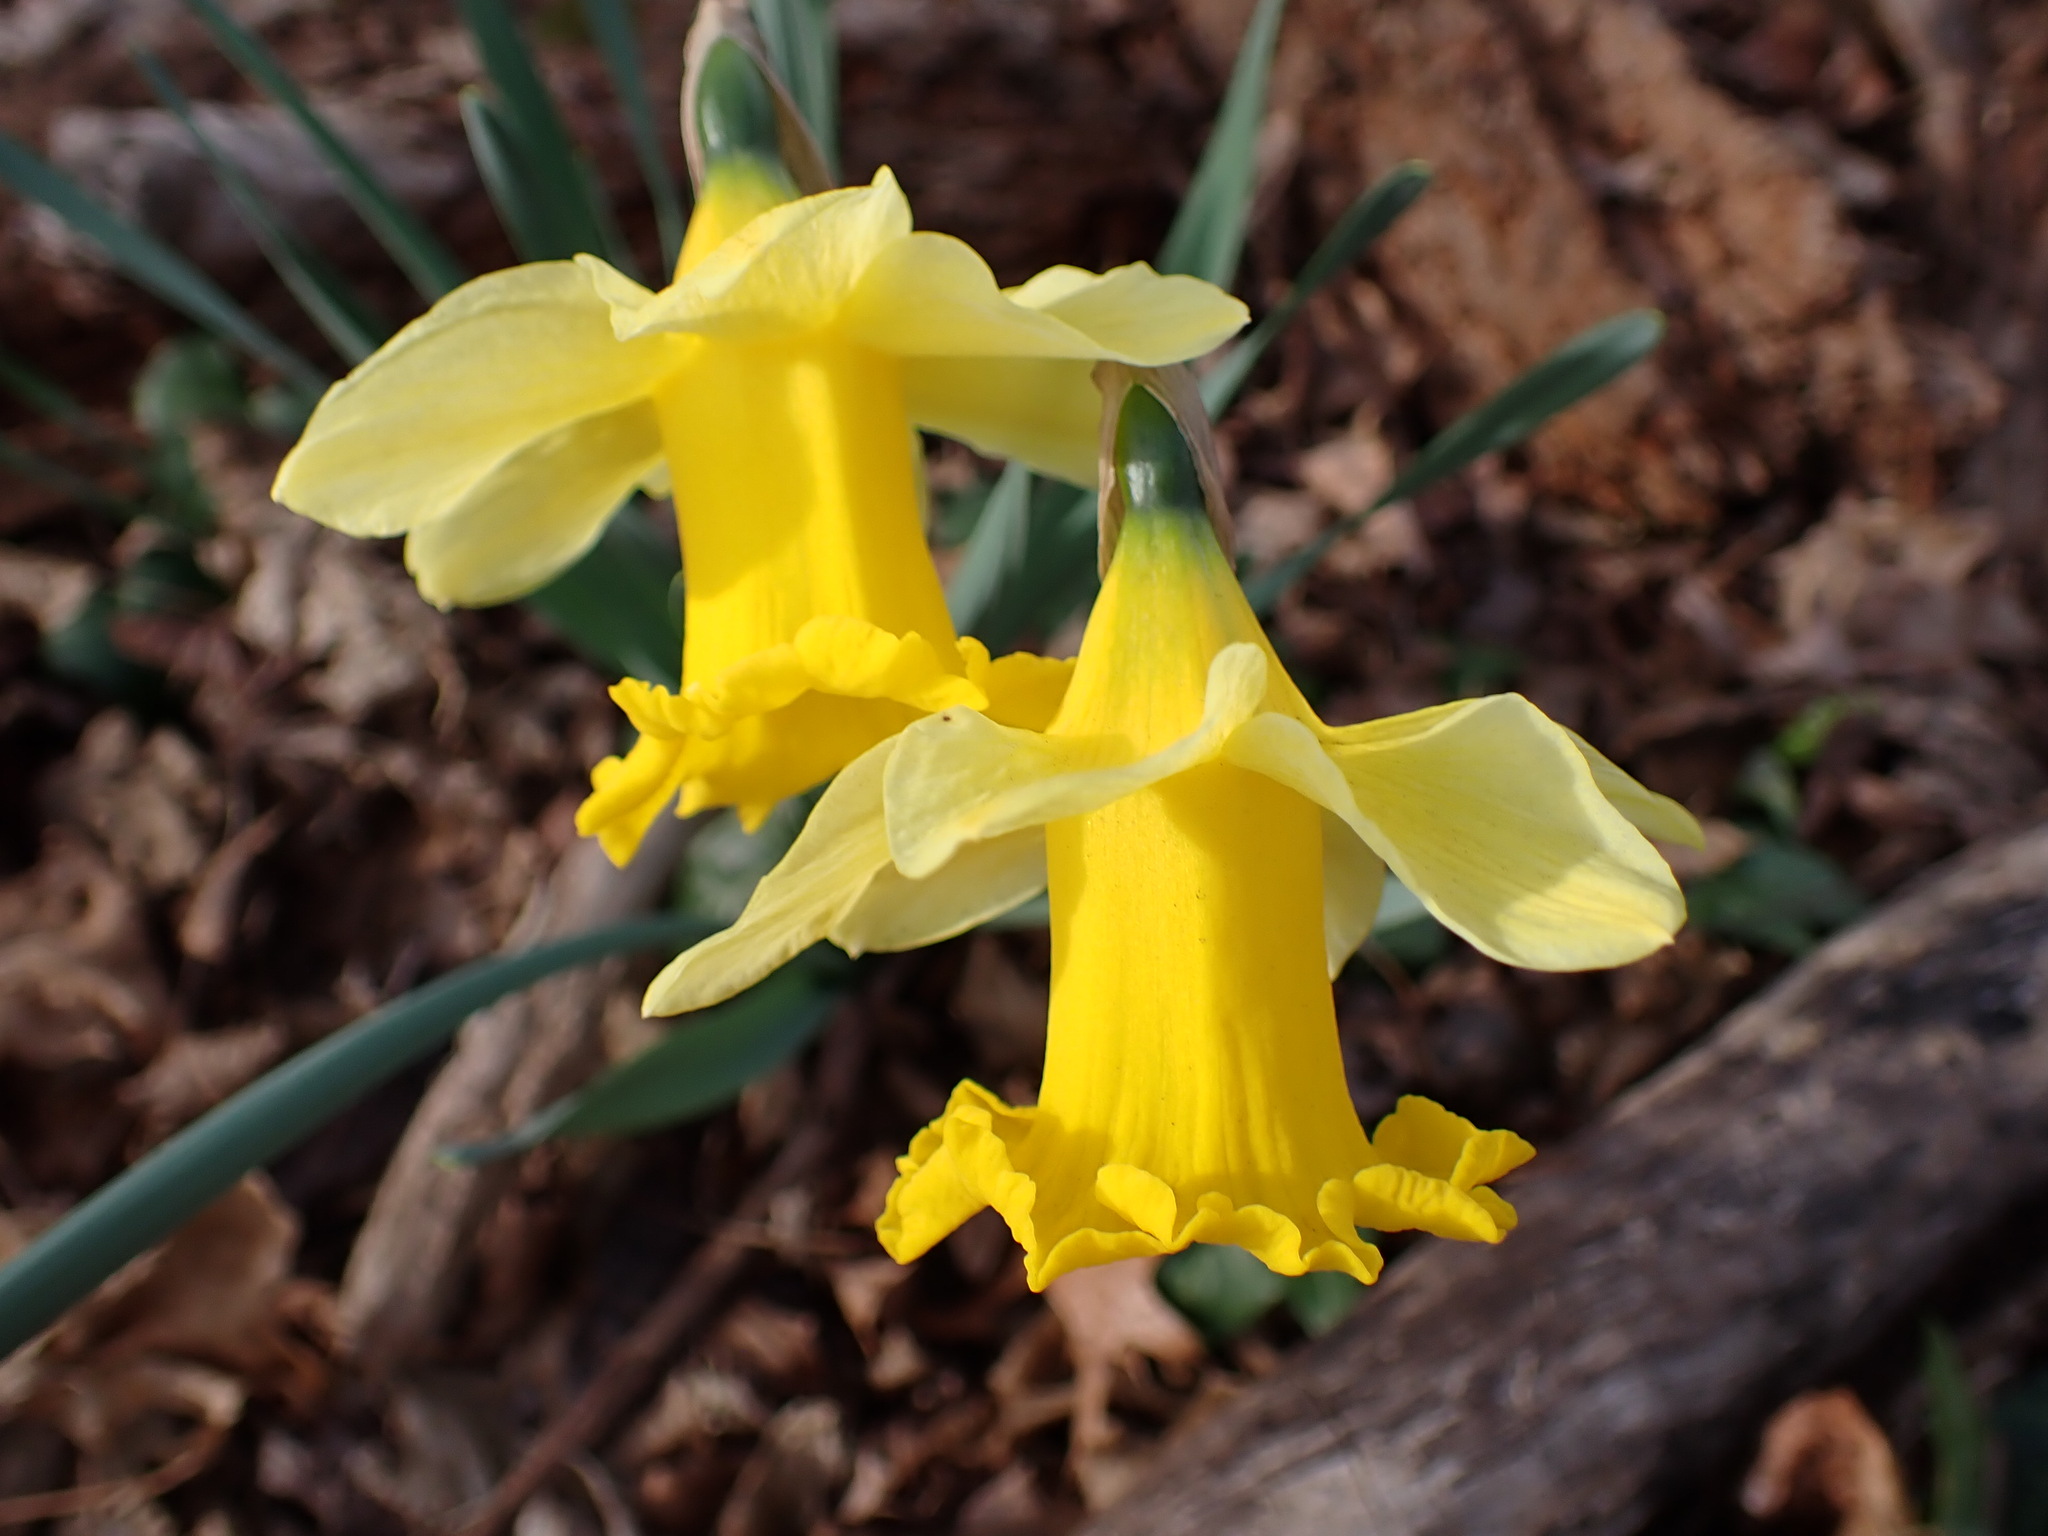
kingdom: Plantae
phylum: Tracheophyta
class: Liliopsida
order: Asparagales
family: Amaryllidaceae
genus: Narcissus
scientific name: Narcissus pseudonarcissus
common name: Daffodil
